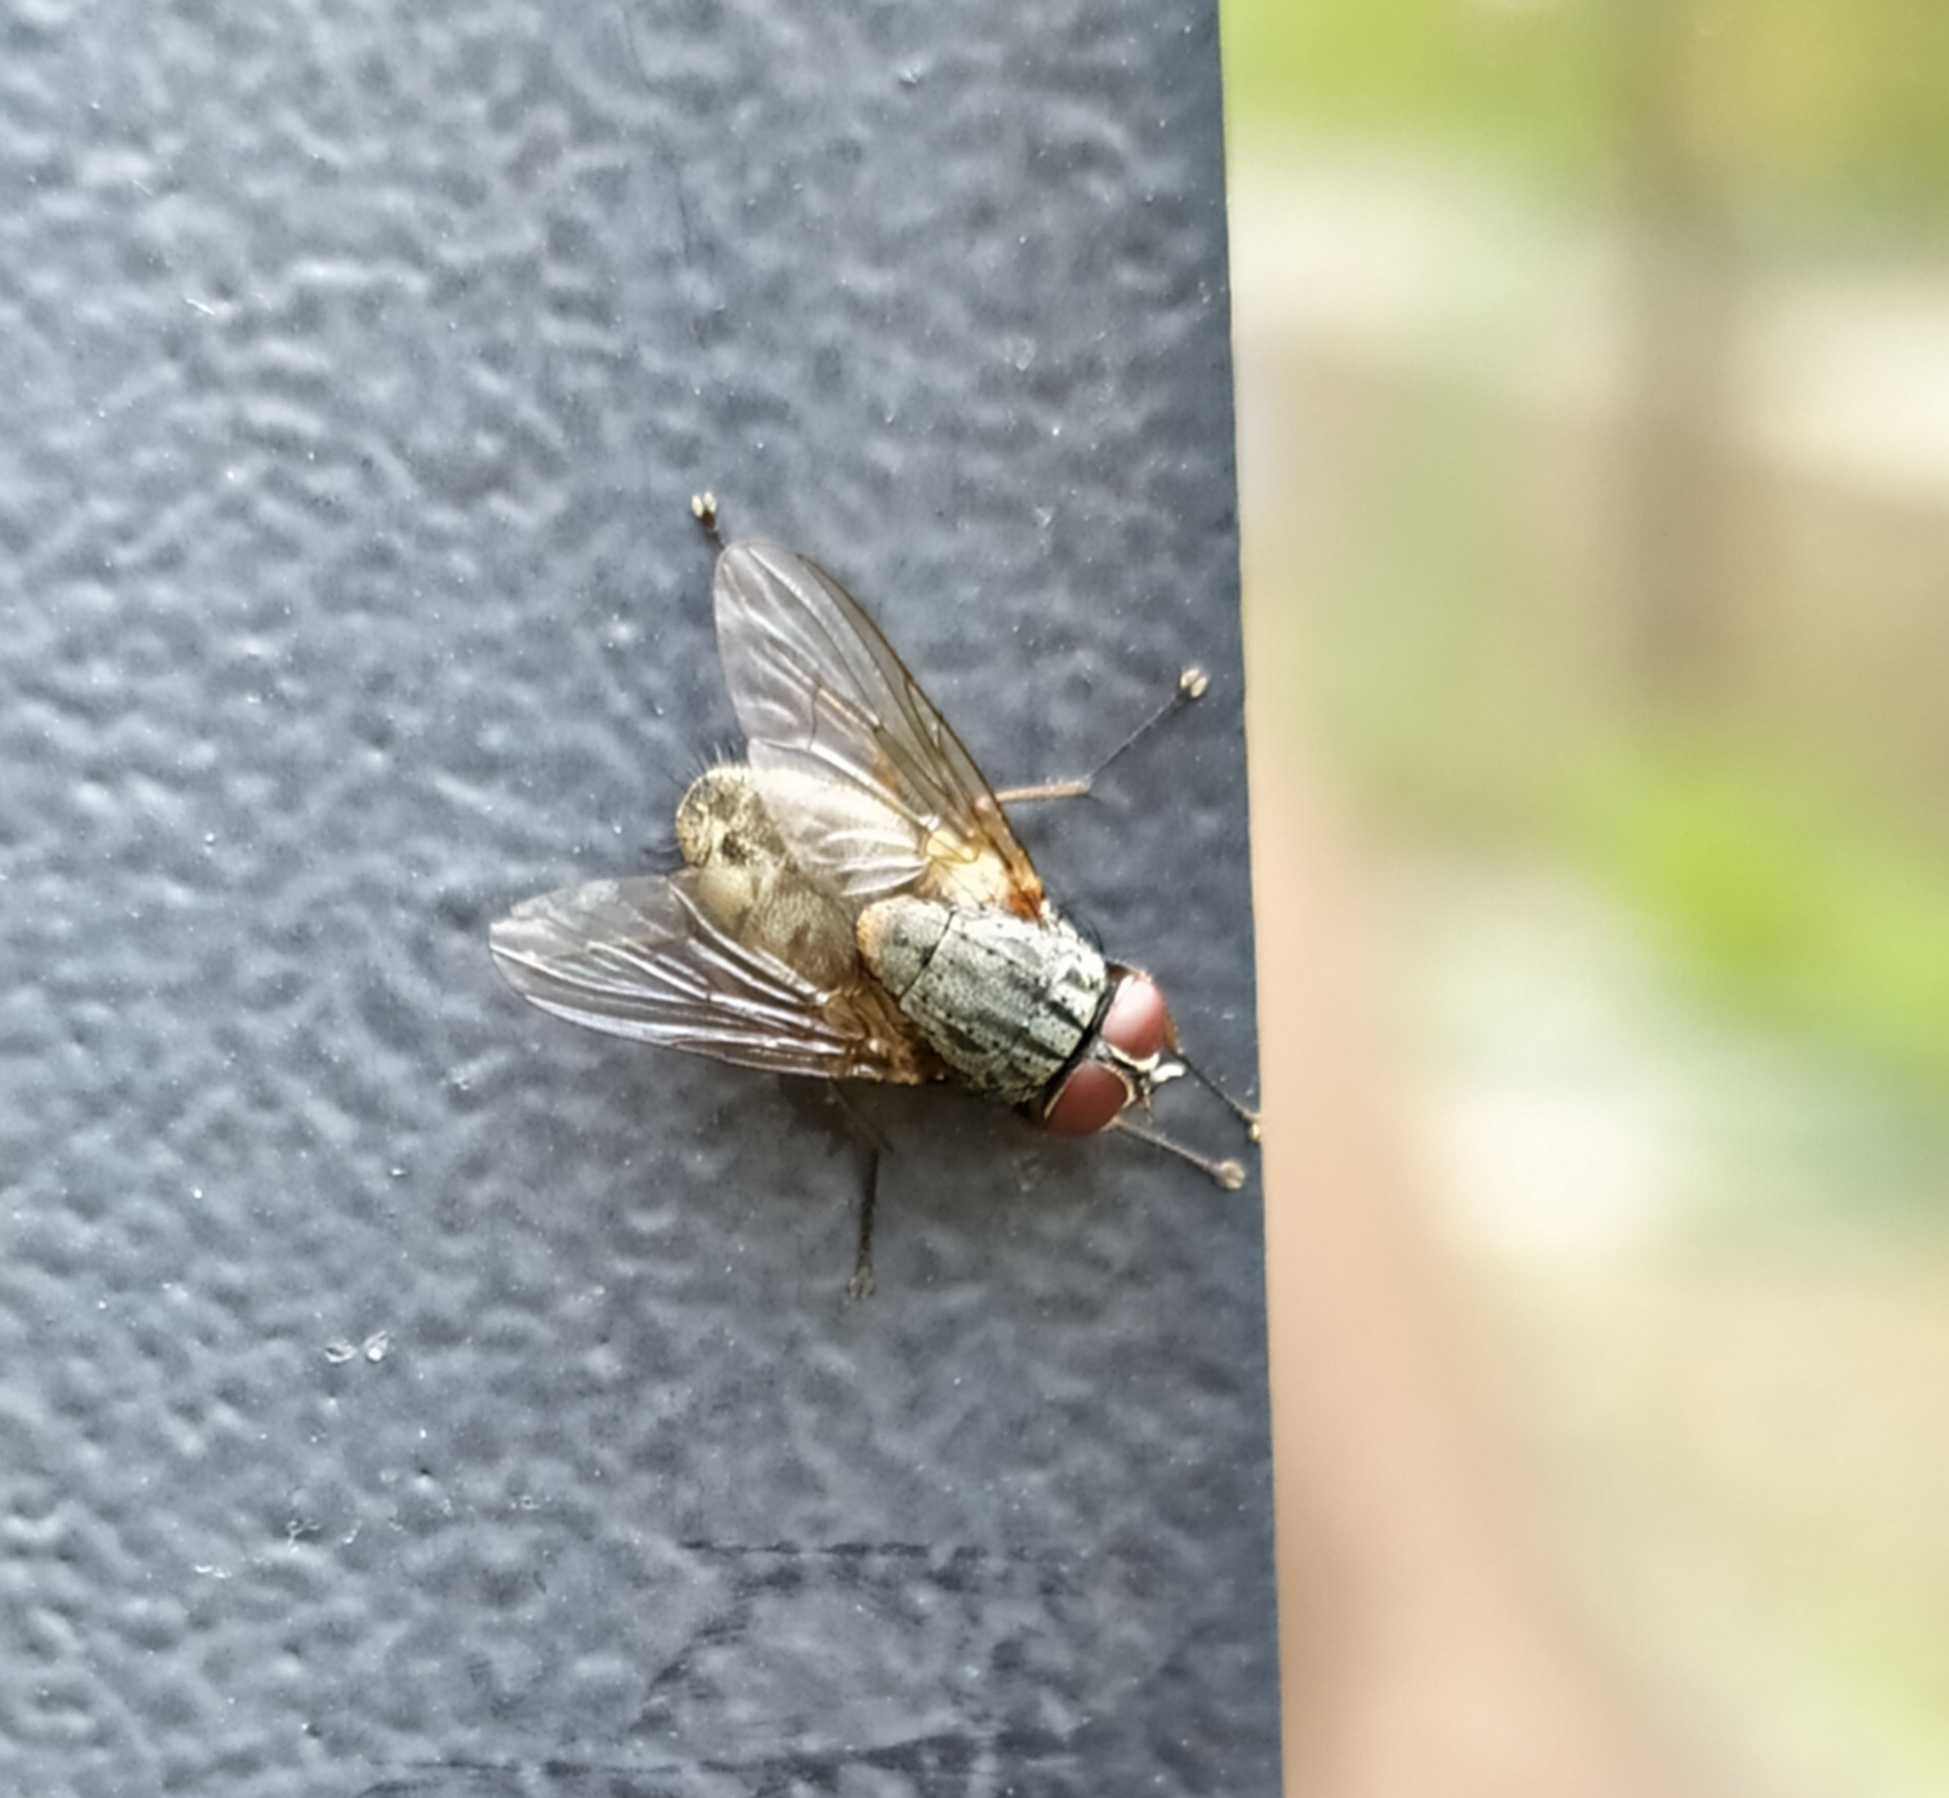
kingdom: Animalia
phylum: Arthropoda
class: Insecta
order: Diptera
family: Muscidae
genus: Muscina
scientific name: Muscina stabulans
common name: False stable fly
